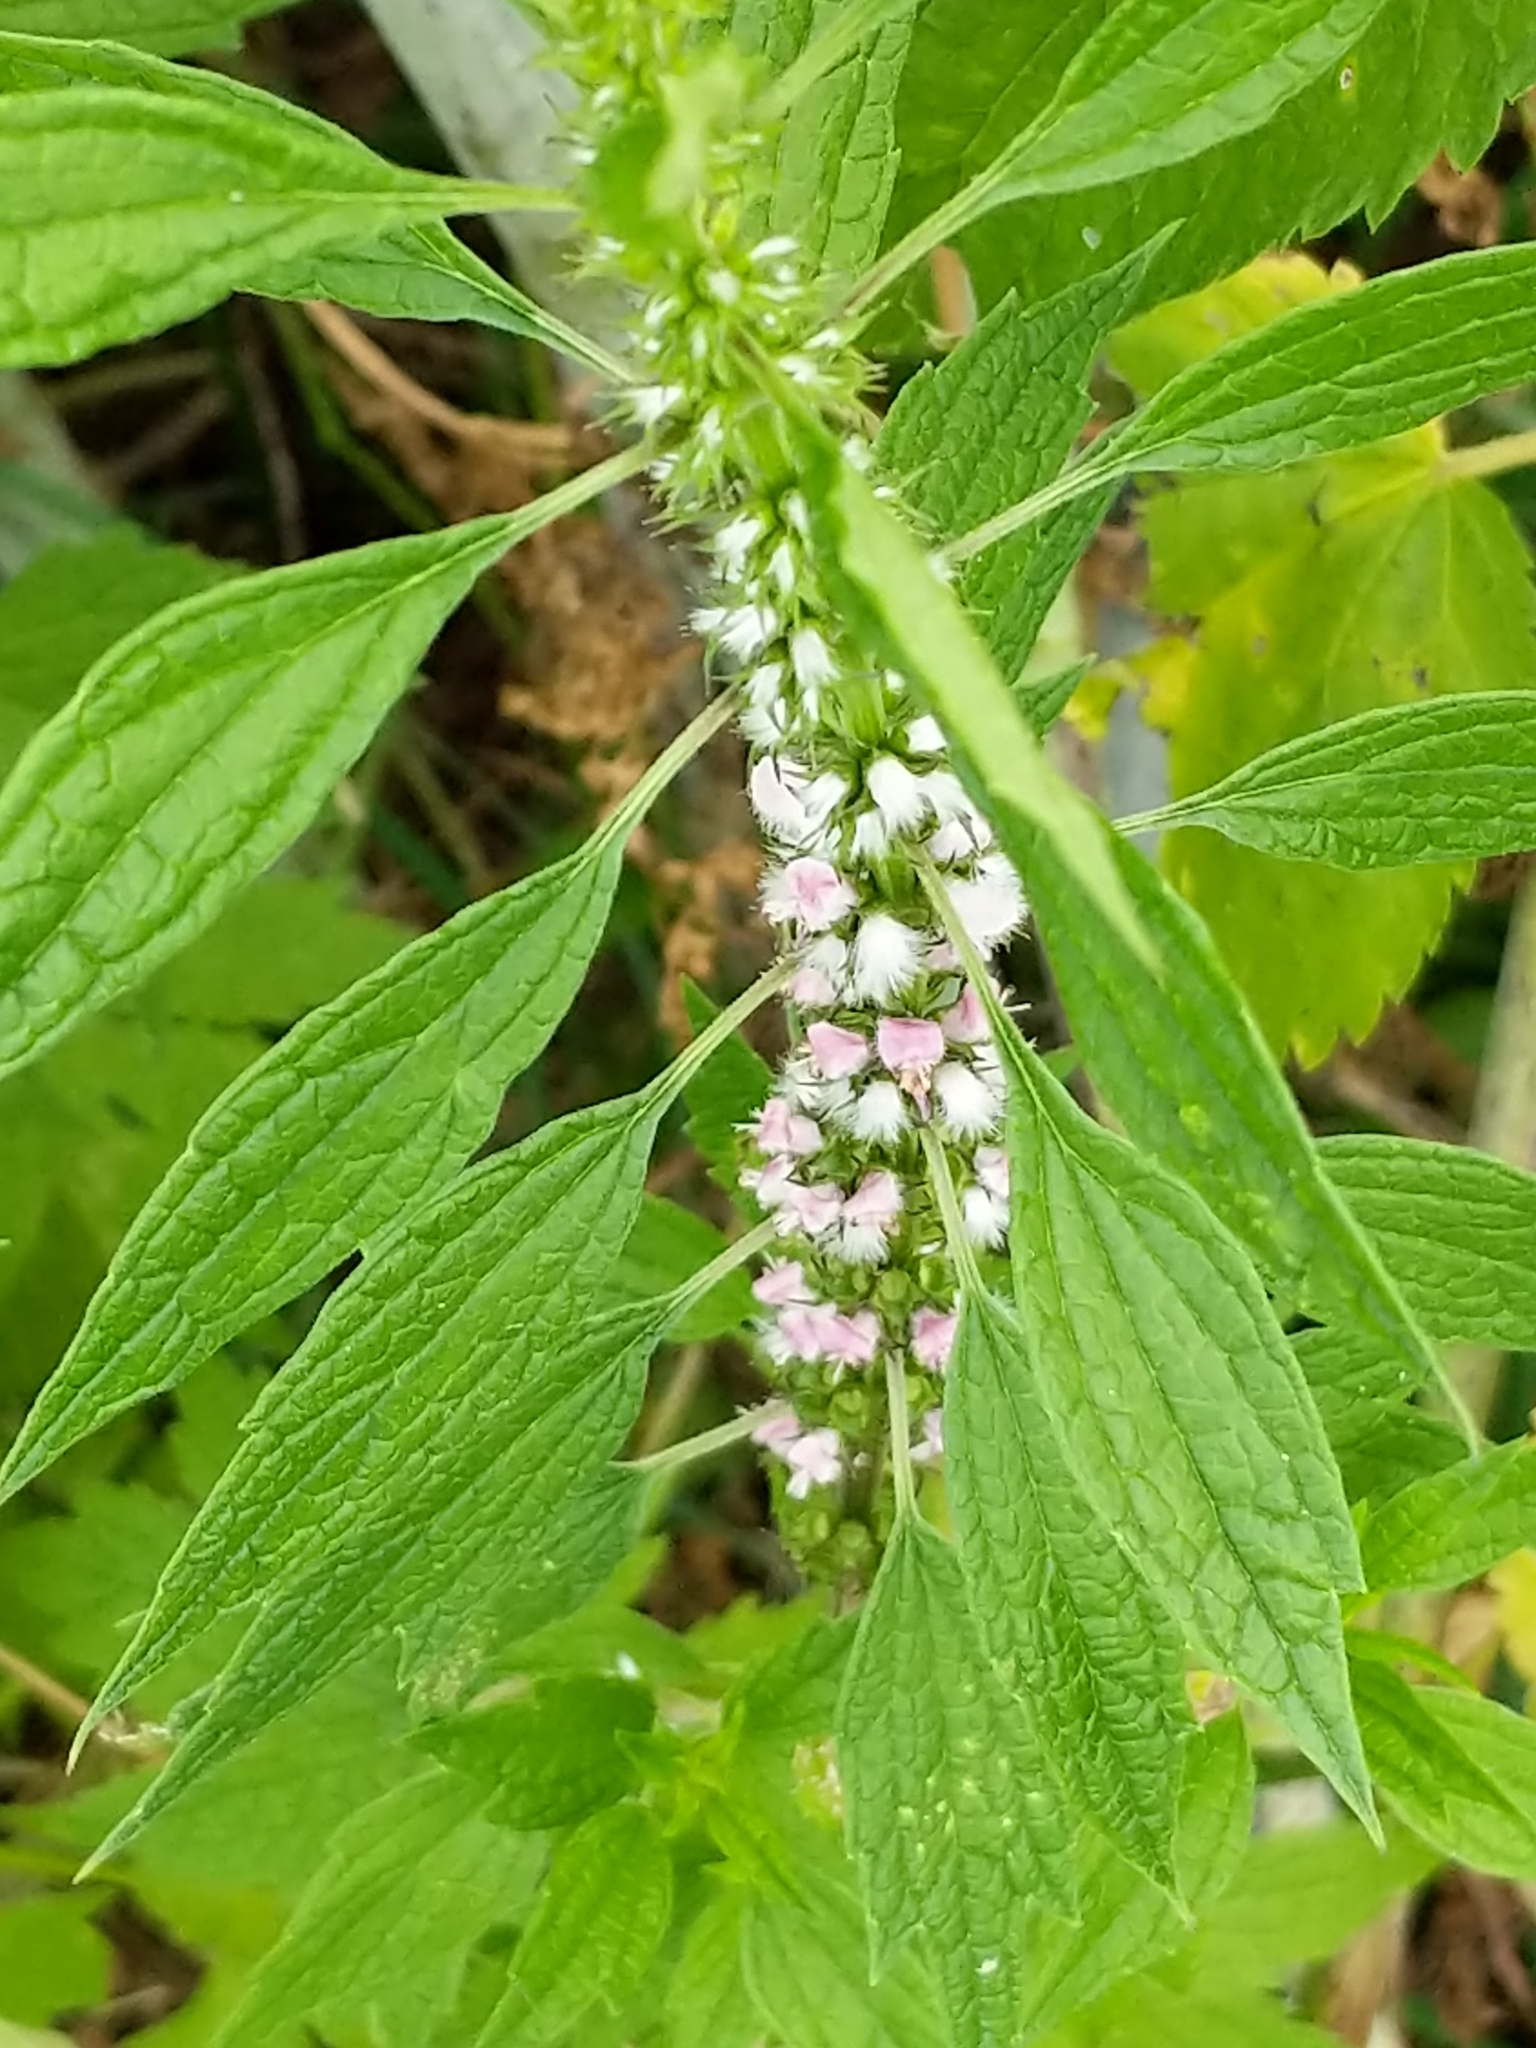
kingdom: Plantae
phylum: Tracheophyta
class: Magnoliopsida
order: Lamiales
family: Lamiaceae
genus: Leonurus
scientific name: Leonurus cardiaca
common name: Motherwort
